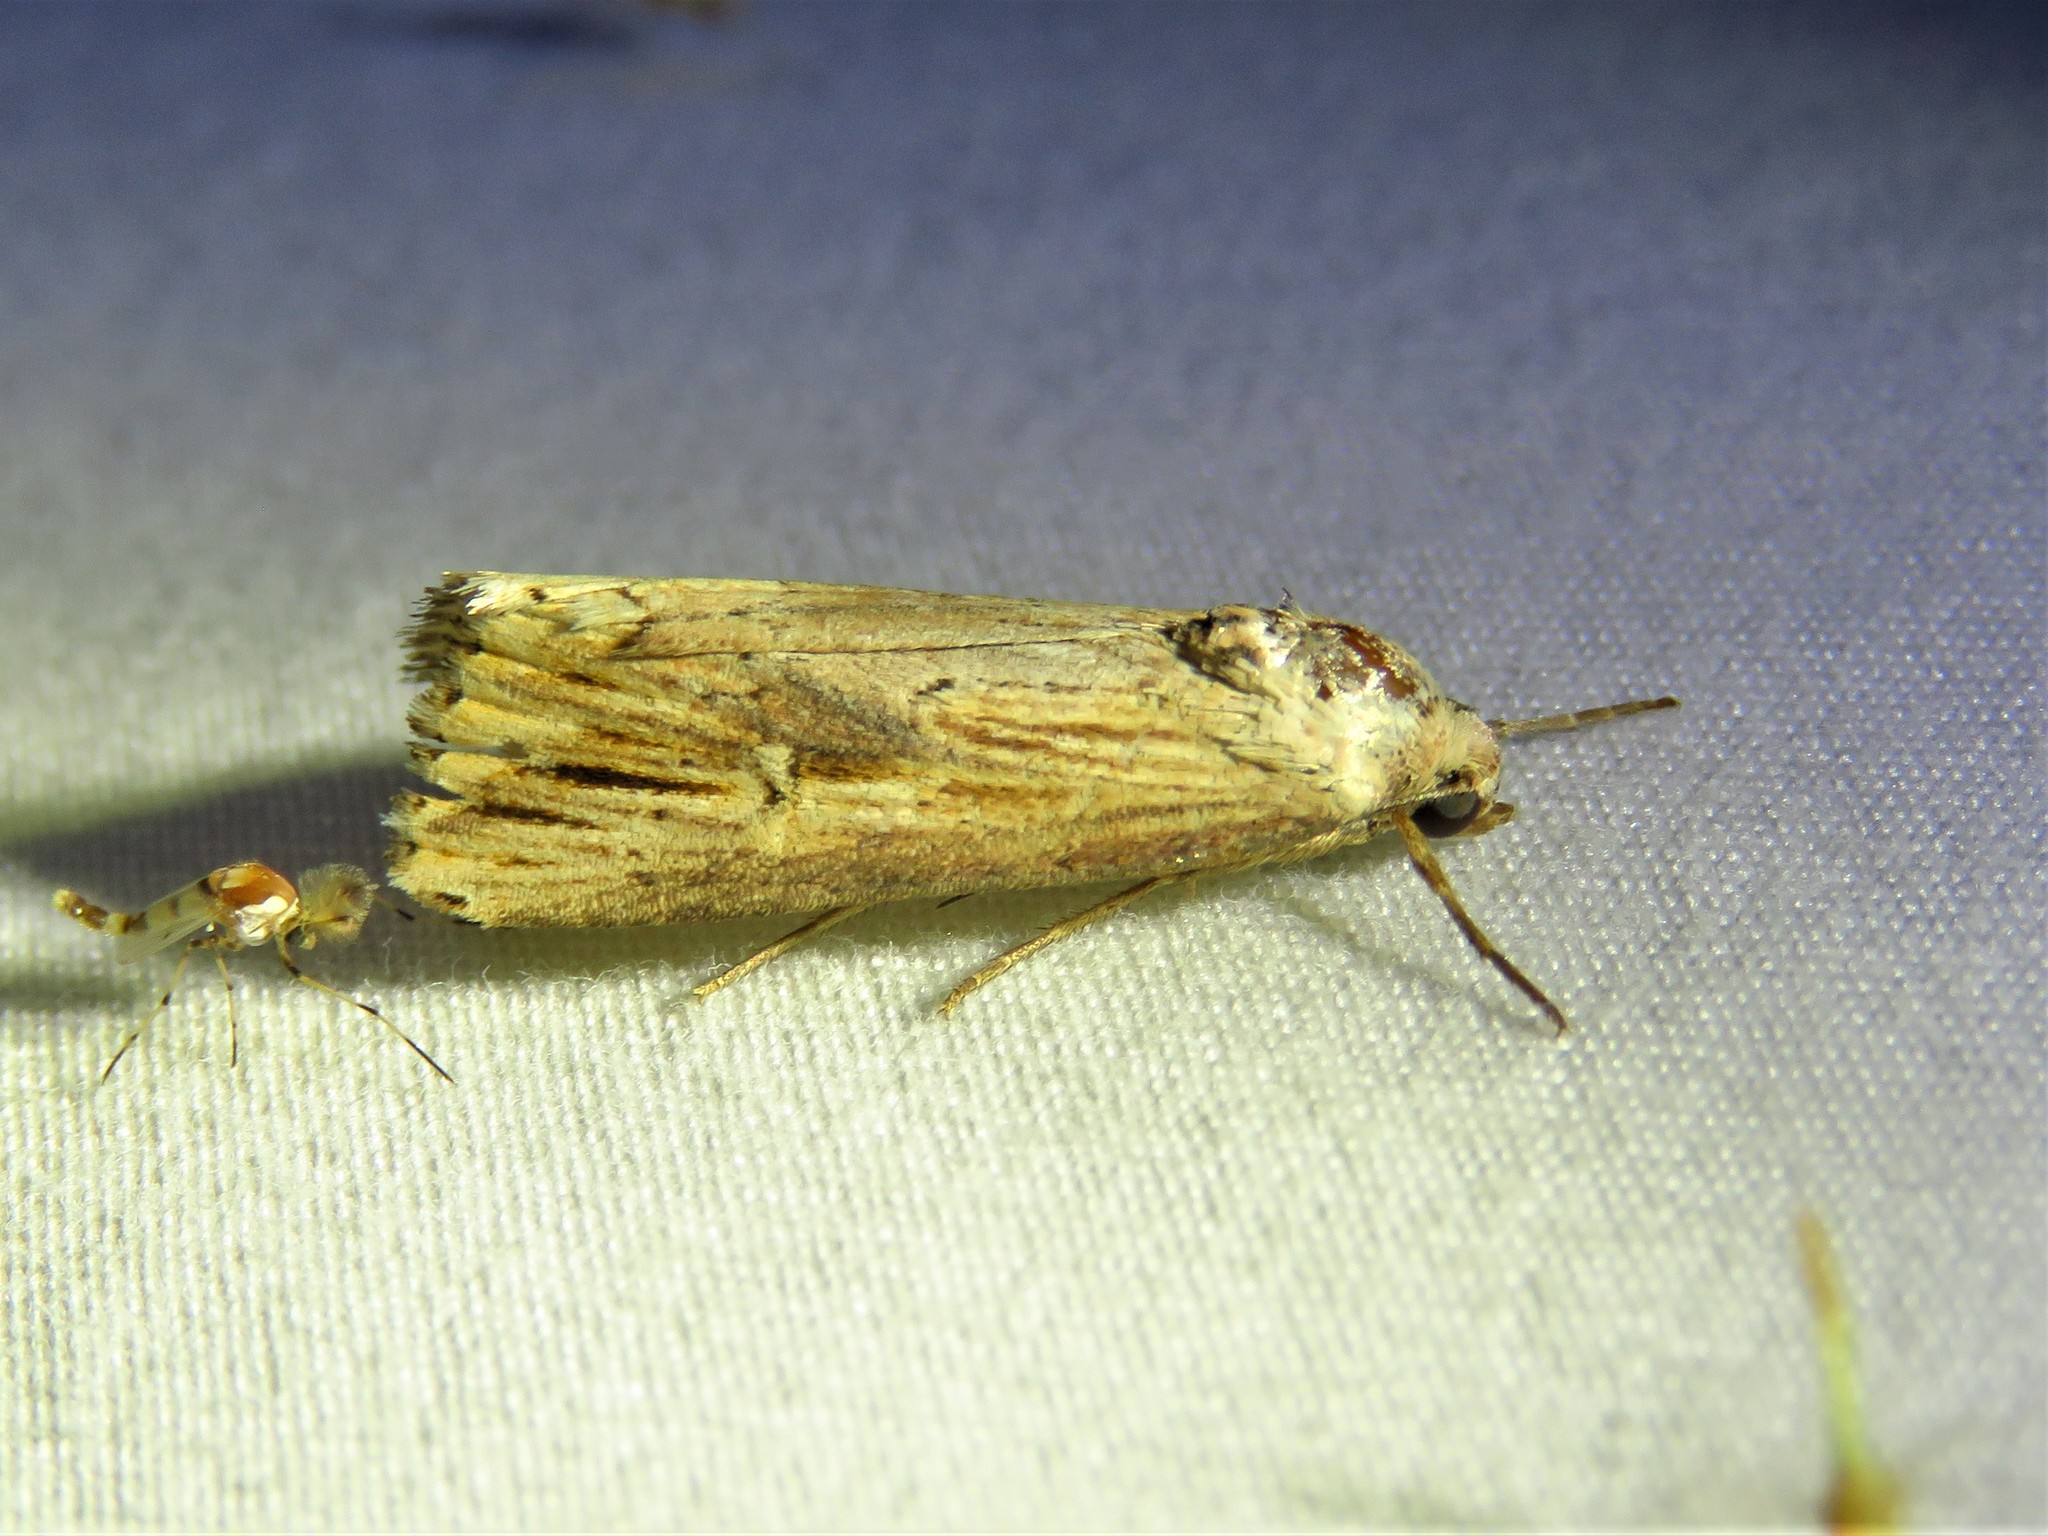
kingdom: Animalia
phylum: Arthropoda
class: Insecta
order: Lepidoptera
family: Noctuidae
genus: Crambodes
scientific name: Crambodes talidiformis
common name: Verbena moth
